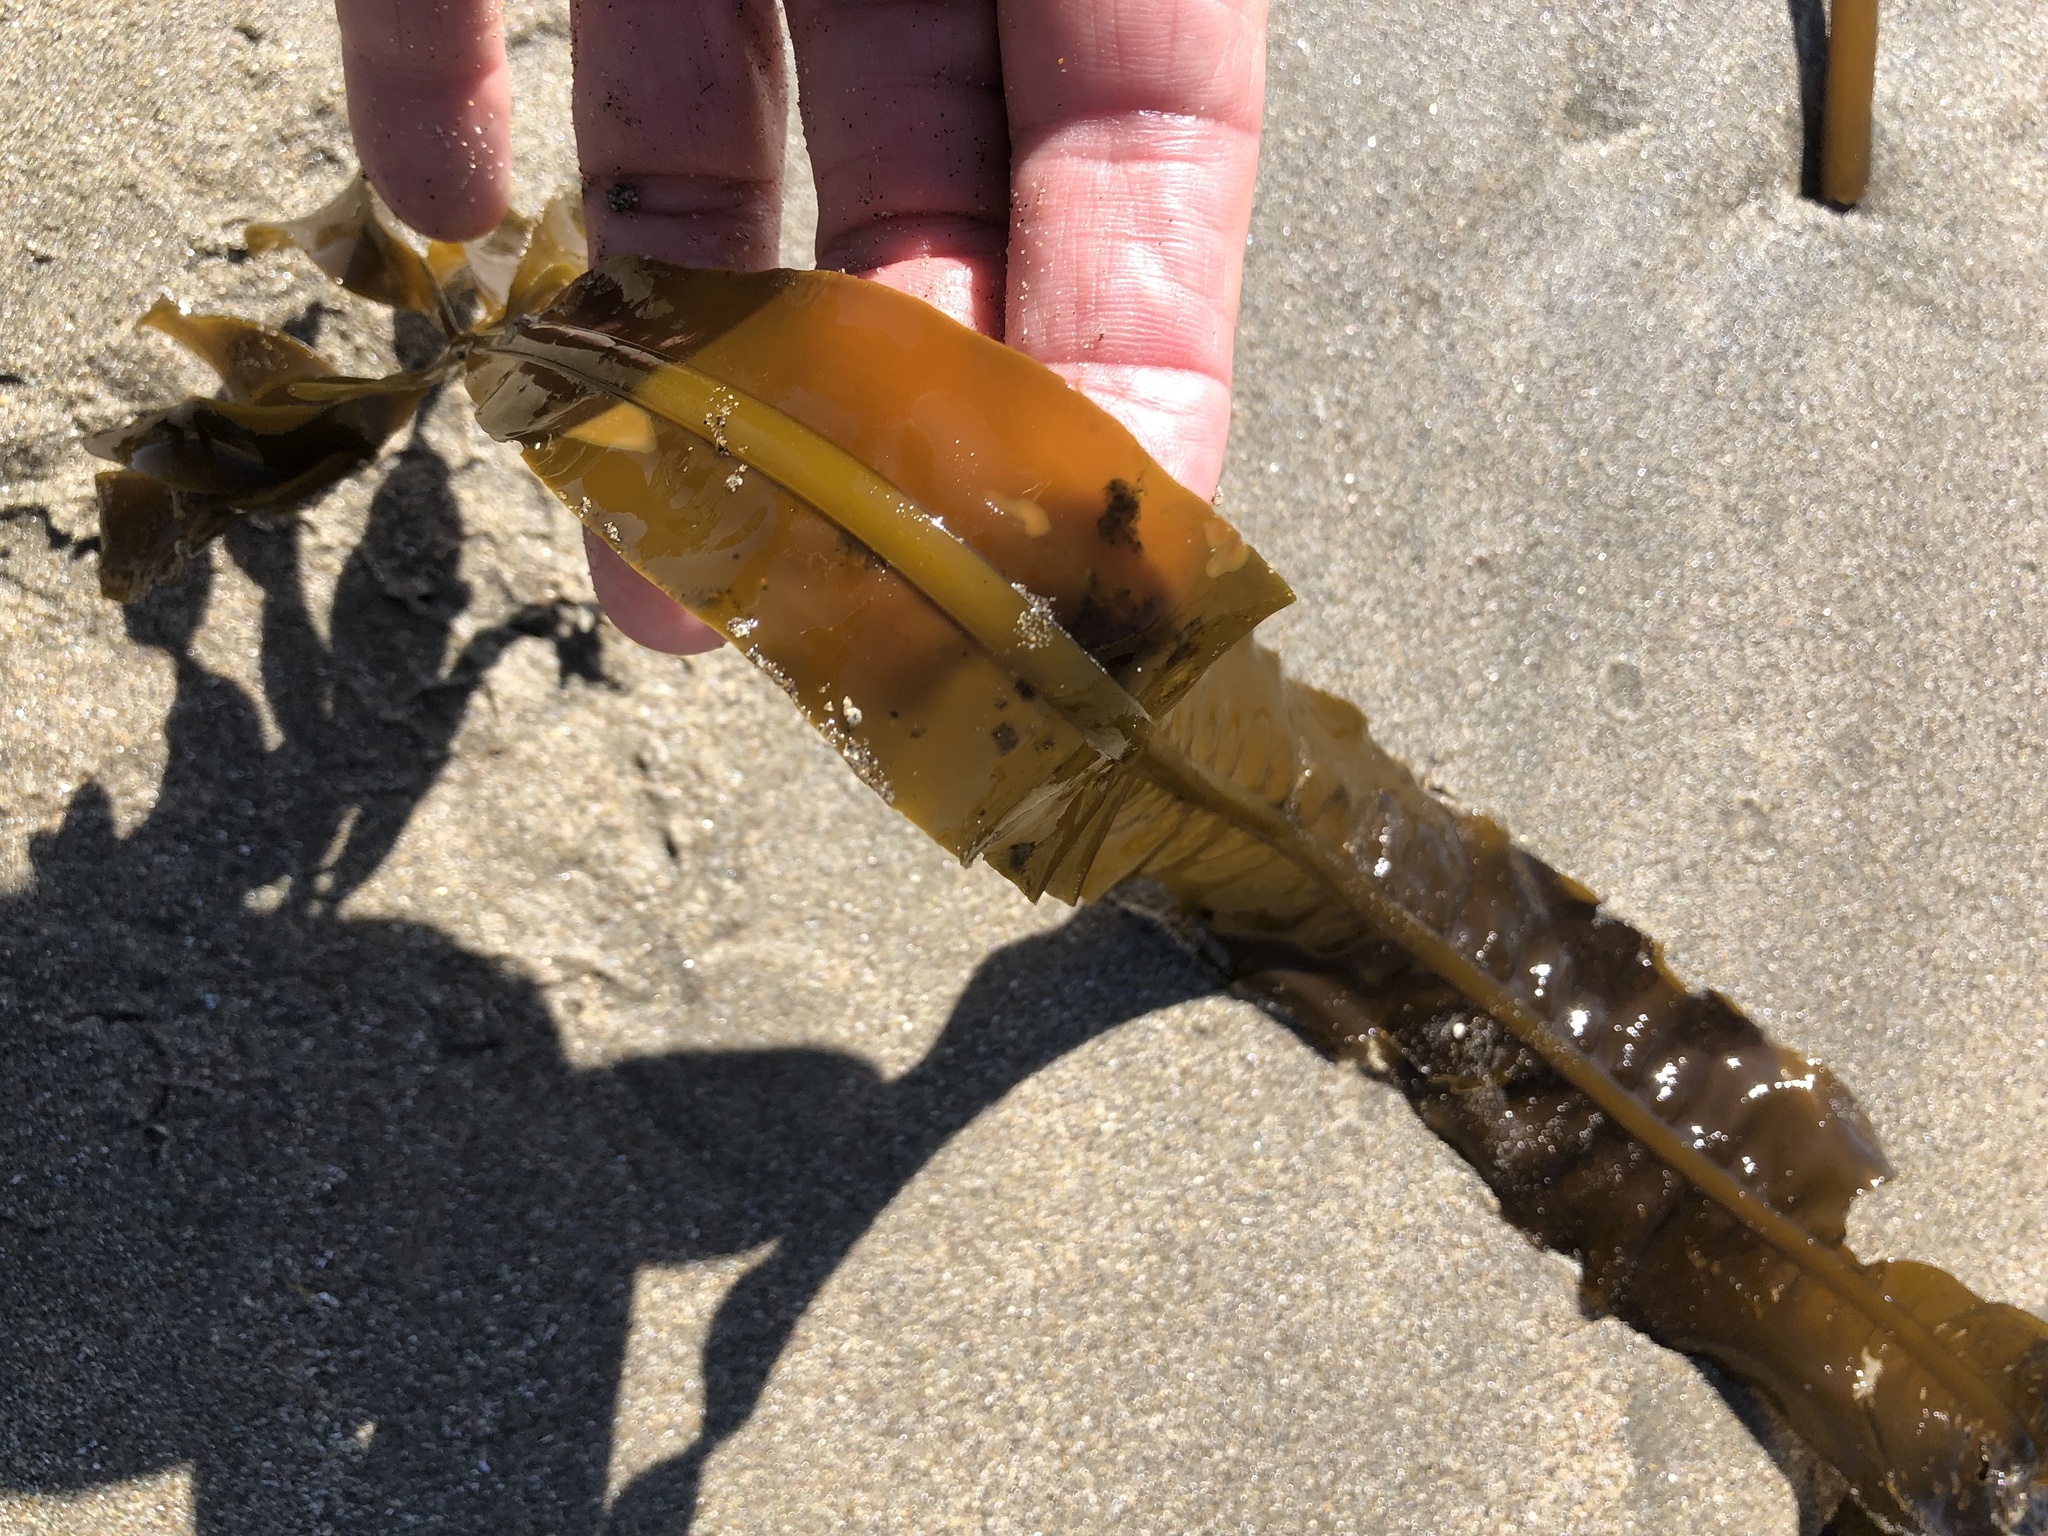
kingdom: Chromista
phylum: Ochrophyta
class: Phaeophyceae
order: Laminariales
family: Alariaceae
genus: Alaria
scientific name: Alaria marginata
